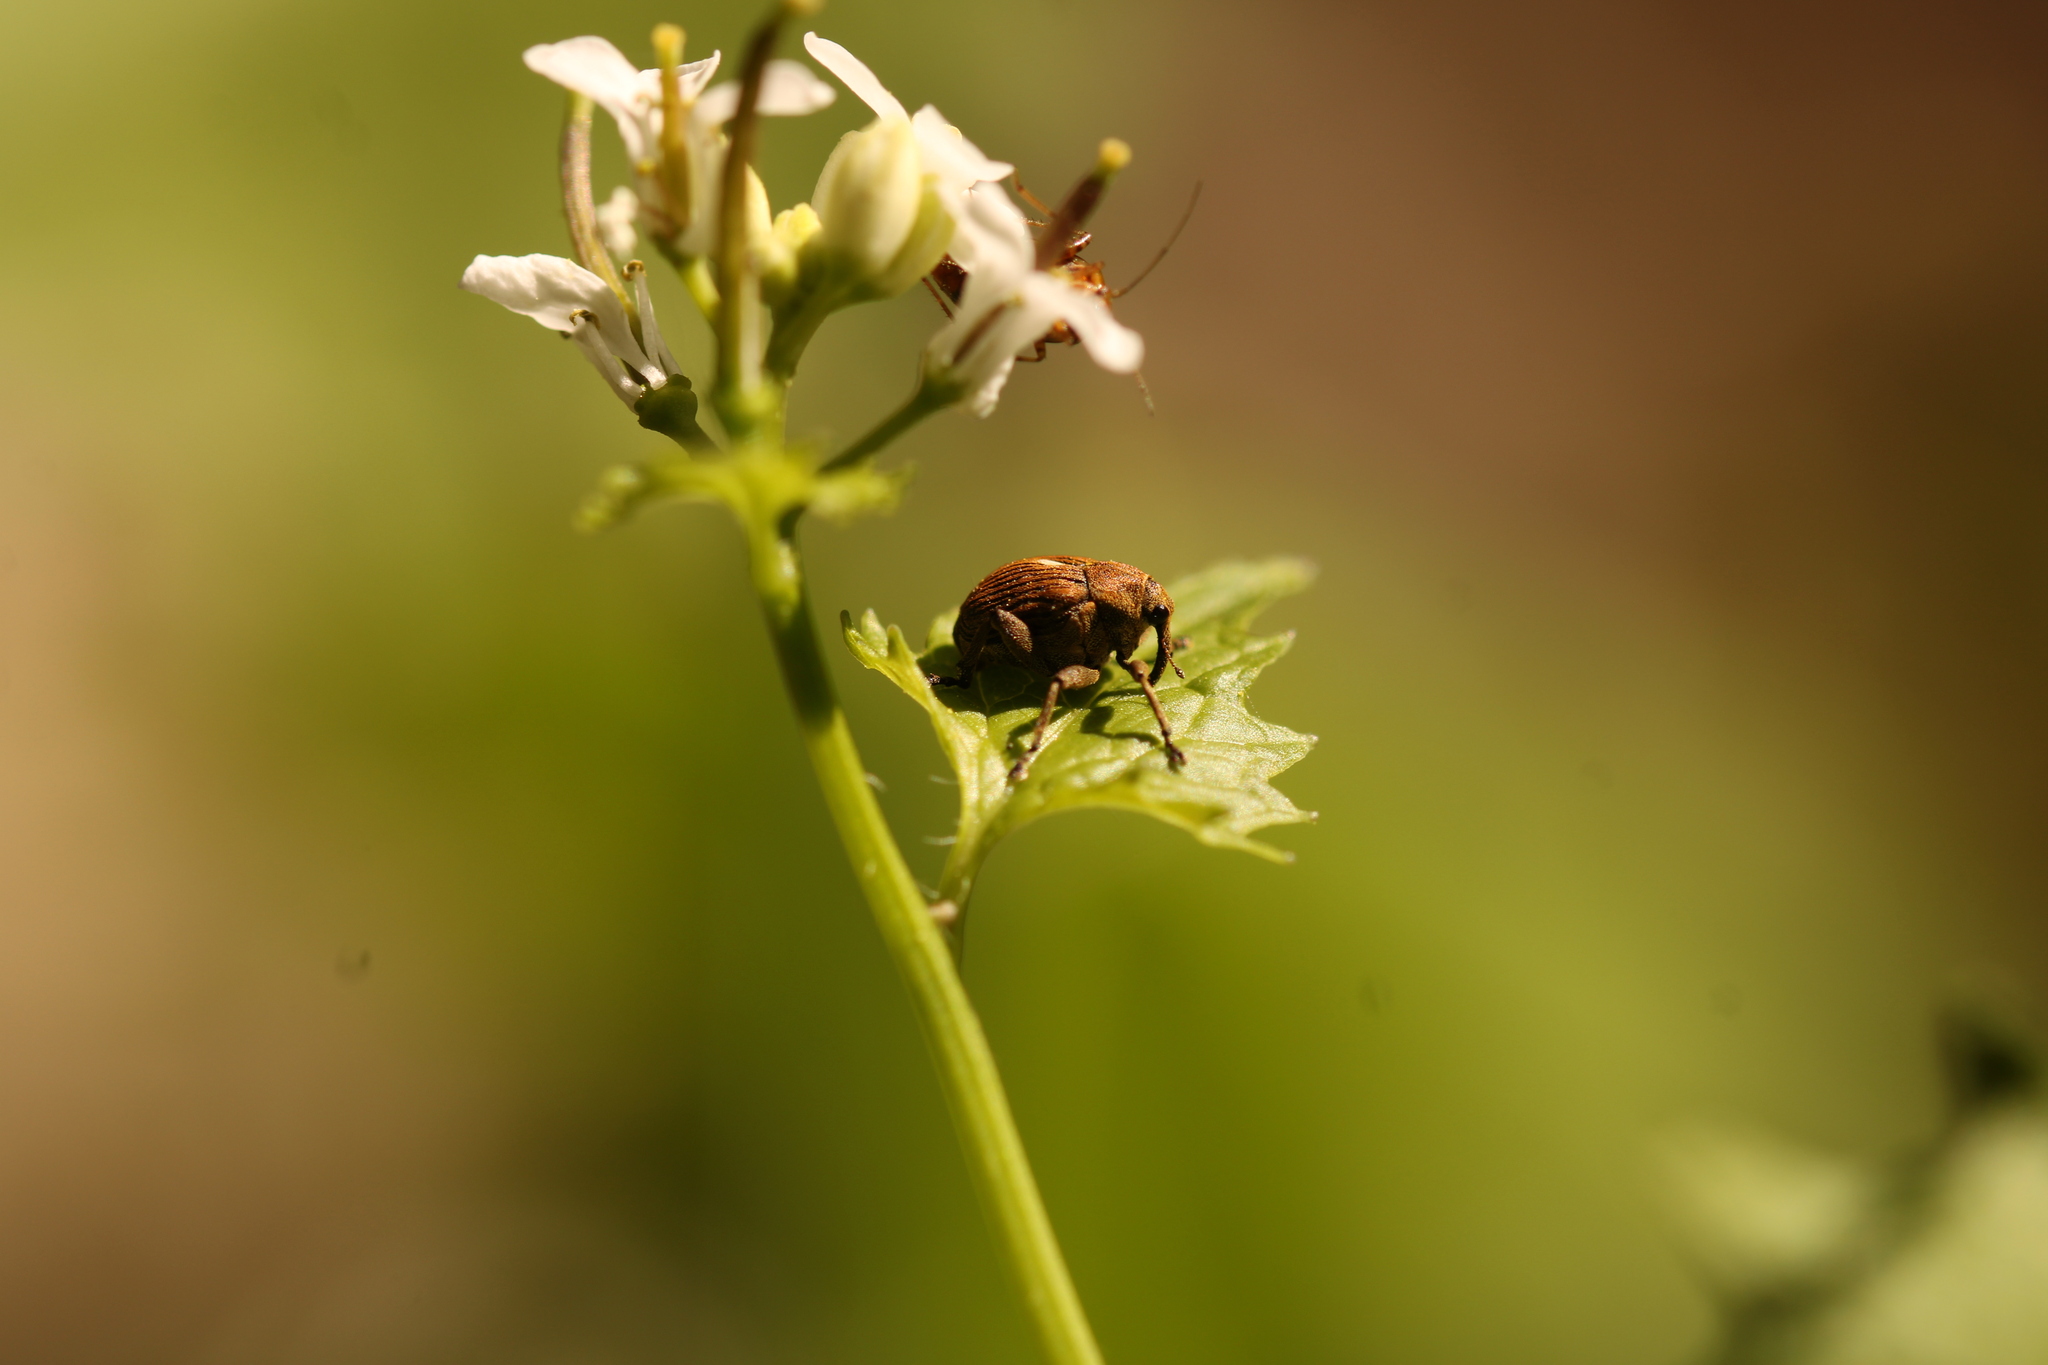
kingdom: Animalia
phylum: Arthropoda
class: Insecta
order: Coleoptera
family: Curculionidae
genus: Mononychus
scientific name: Mononychus punctumalbum
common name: Iris weevil
